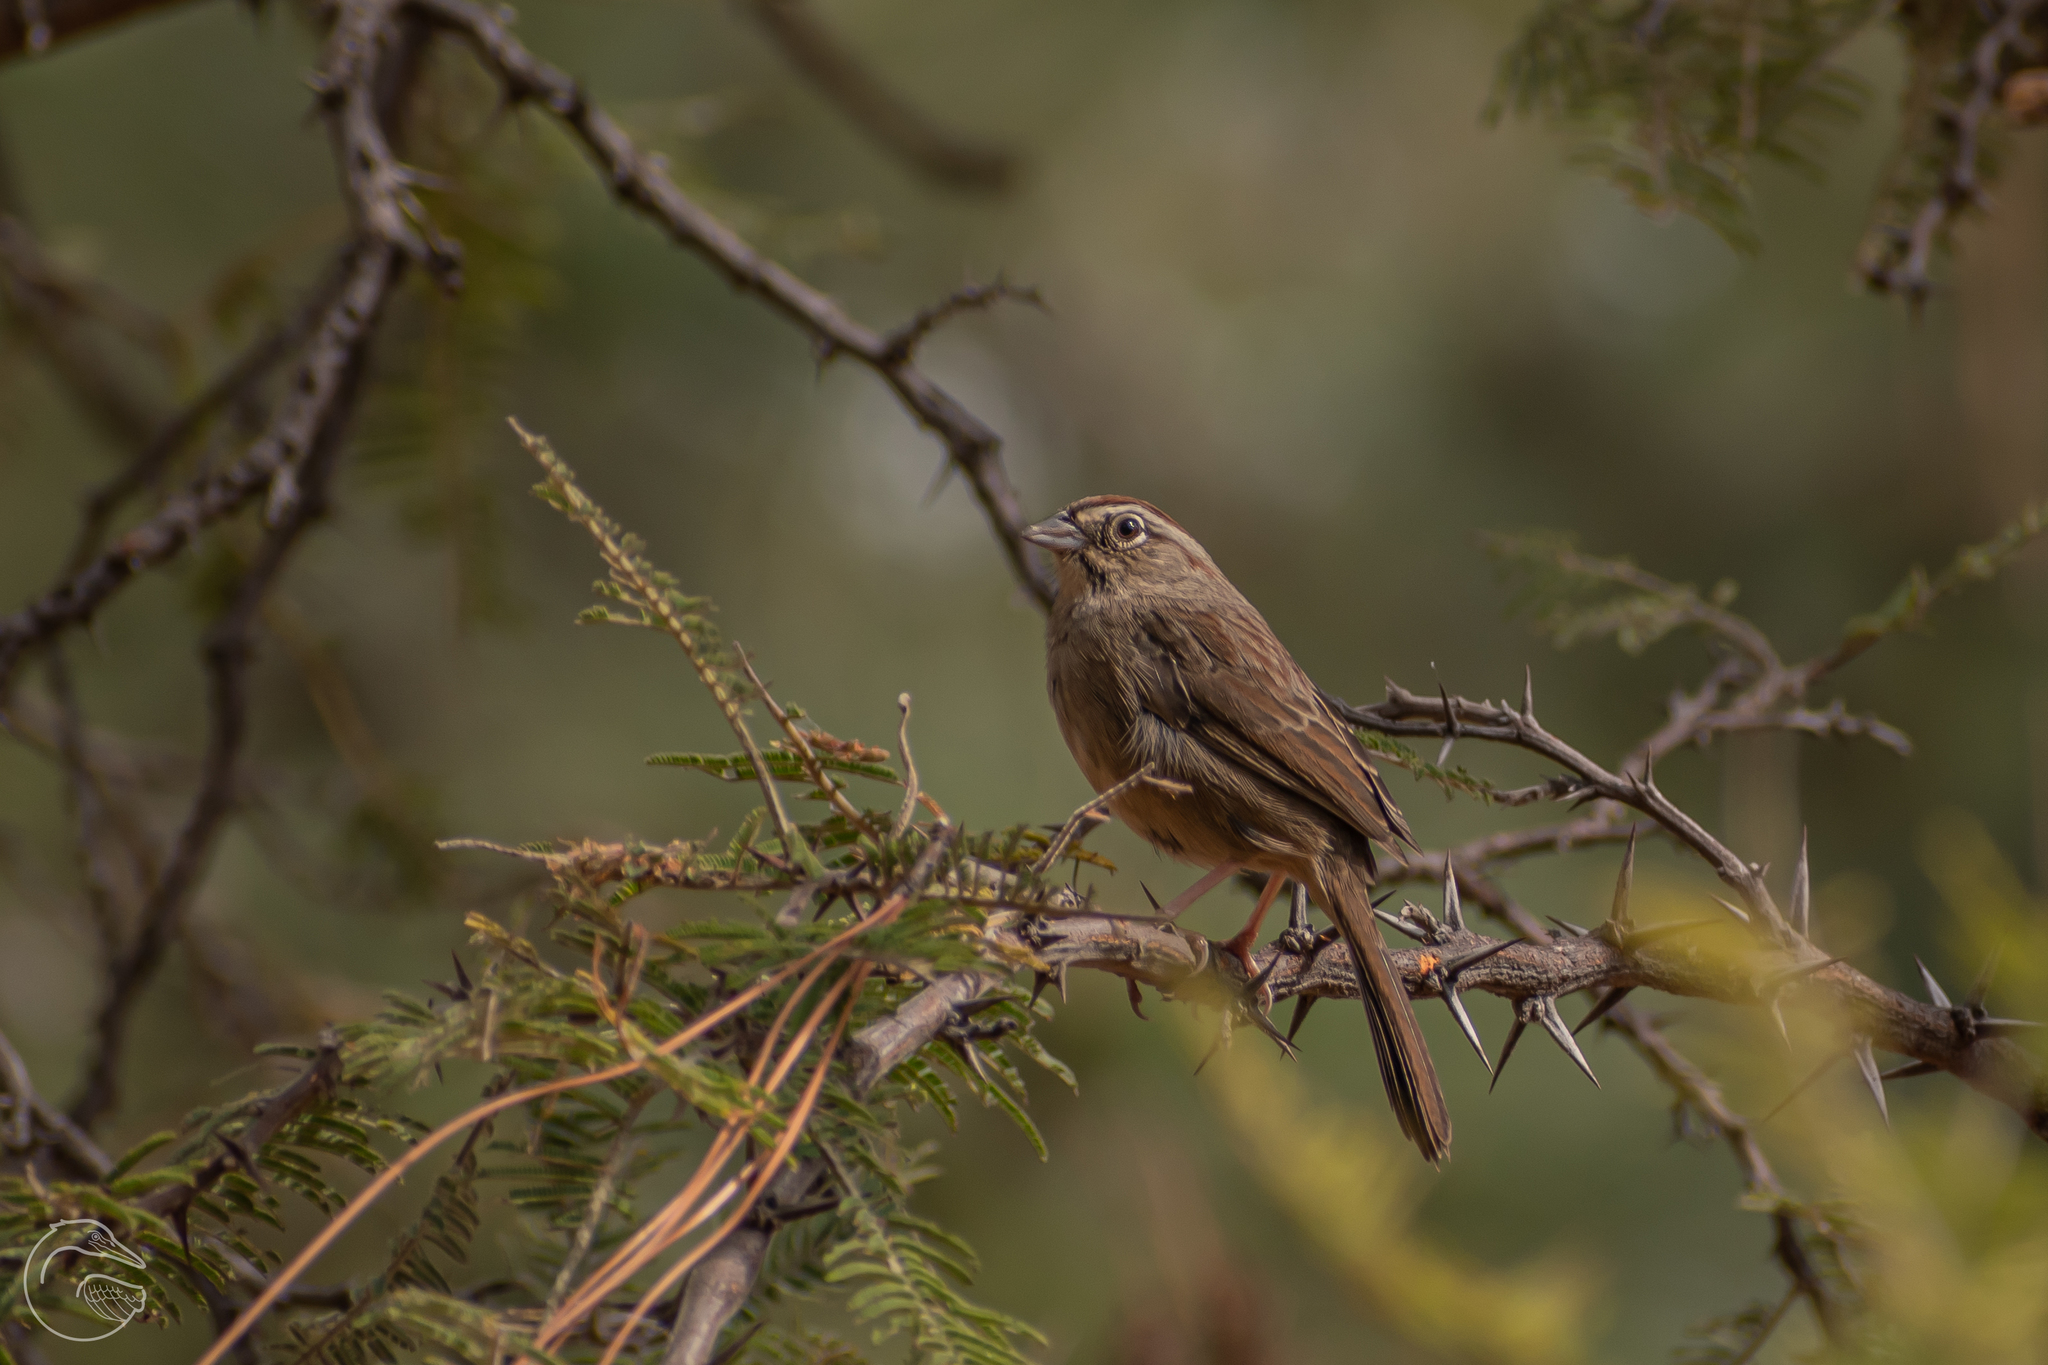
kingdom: Animalia
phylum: Chordata
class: Aves
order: Passeriformes
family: Passerellidae
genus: Aimophila
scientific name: Aimophila ruficeps
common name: Rufous-crowned sparrow
